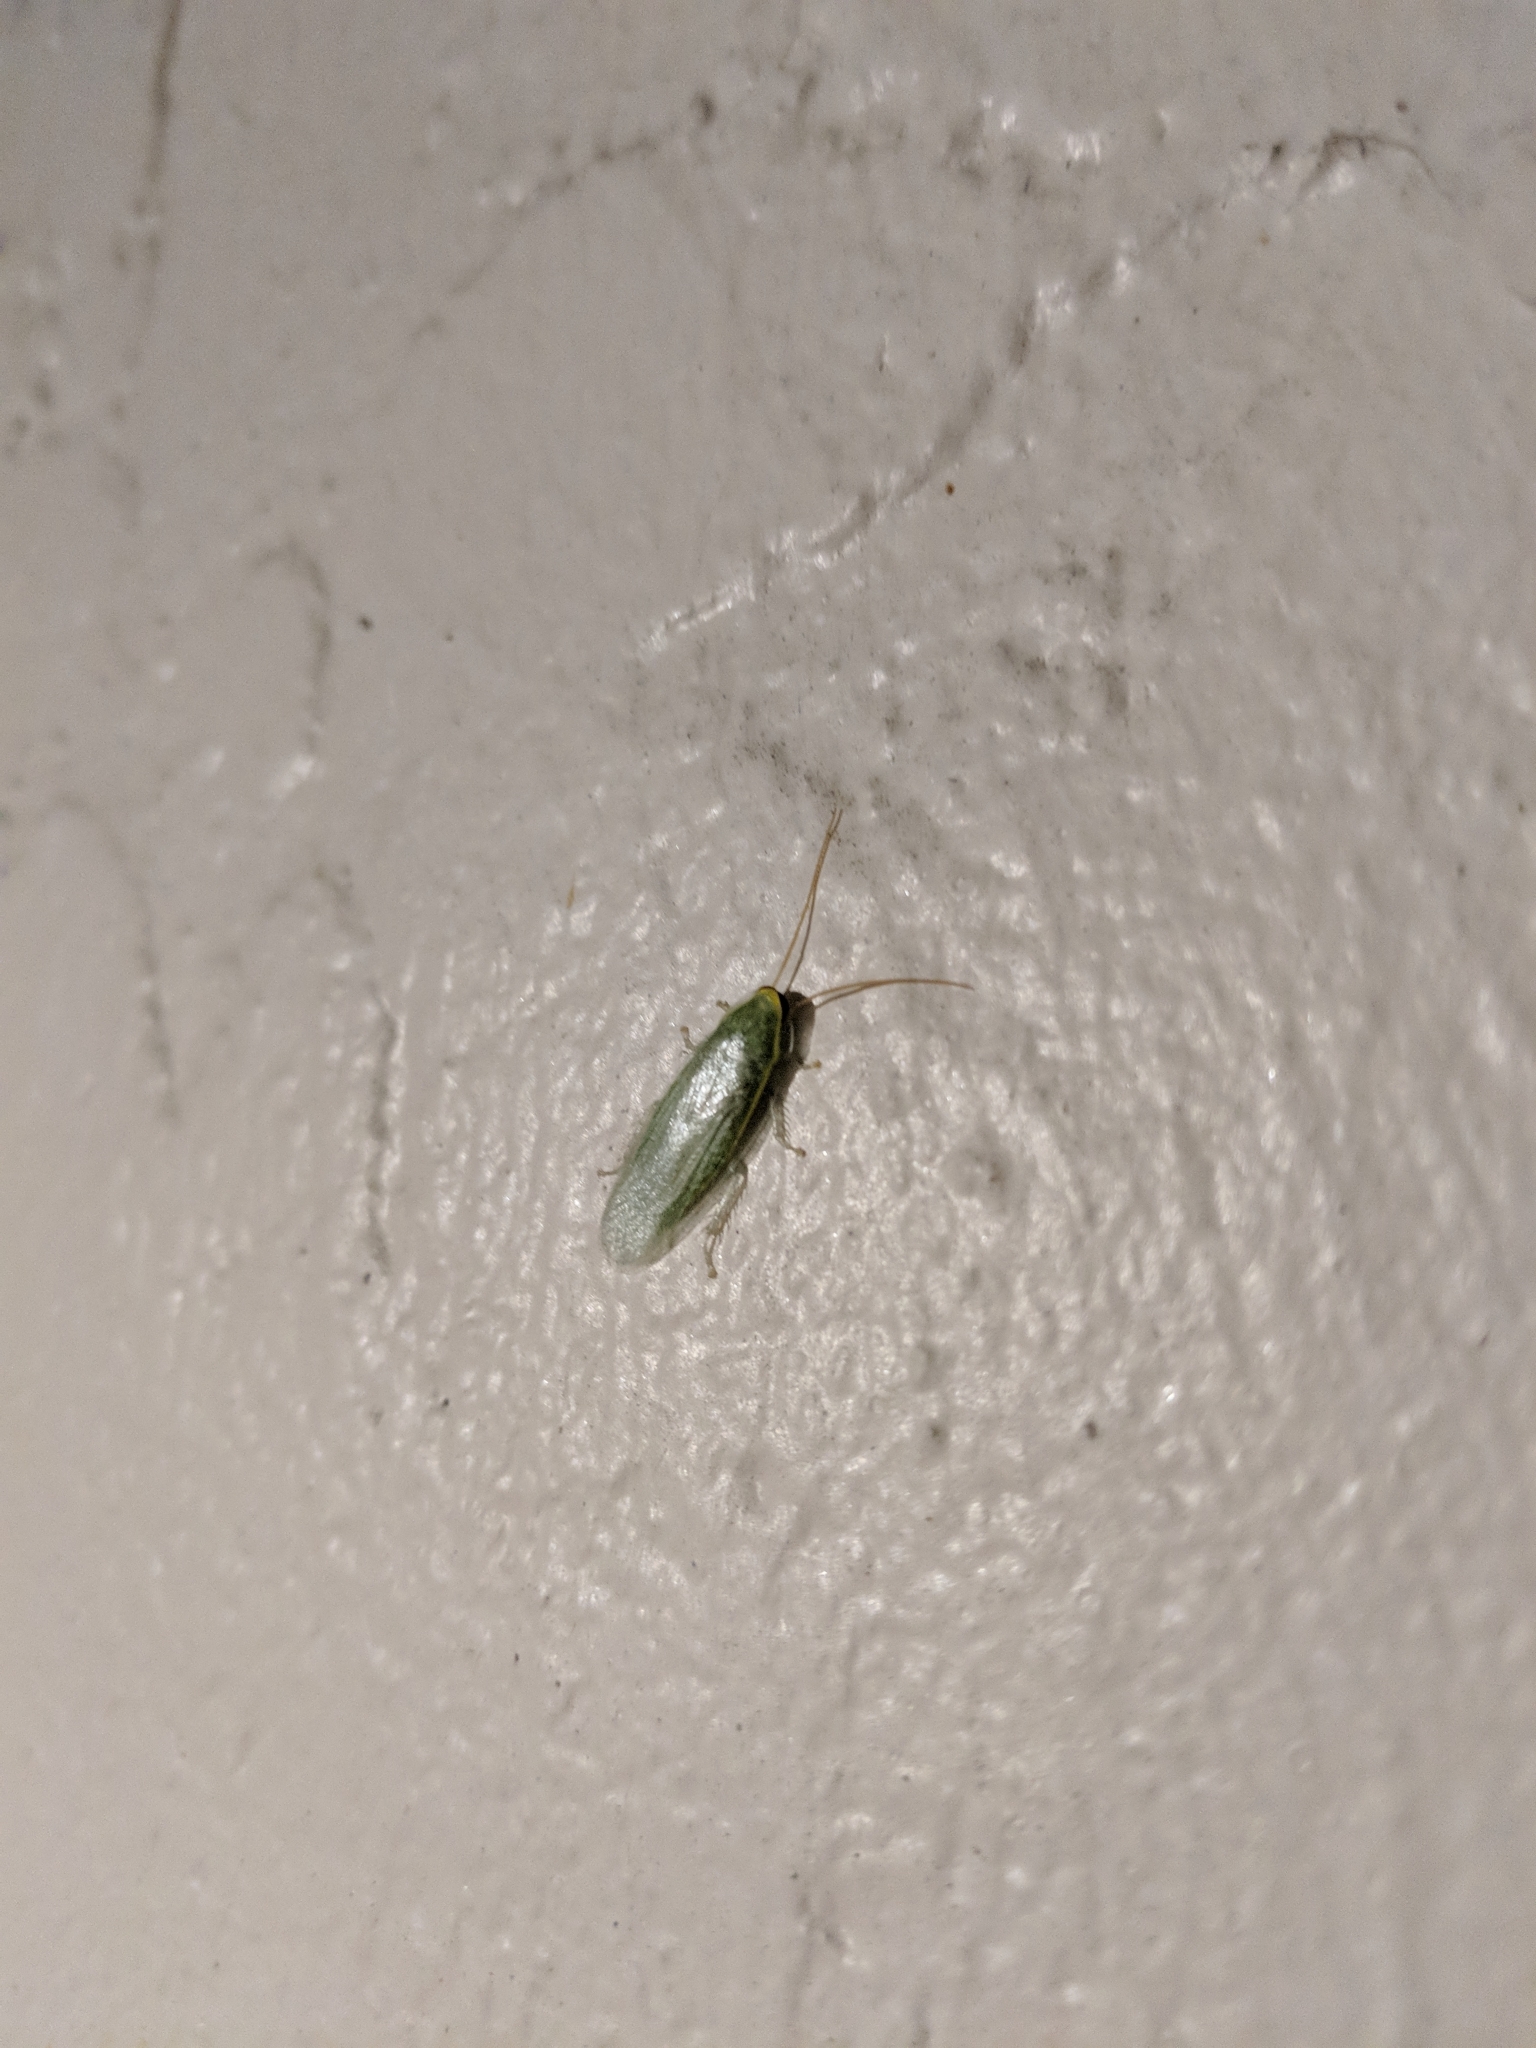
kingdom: Animalia
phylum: Arthropoda
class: Insecta
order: Blattodea
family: Blaberidae
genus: Panchlora
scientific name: Panchlora nivea
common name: Cuban cockroach
